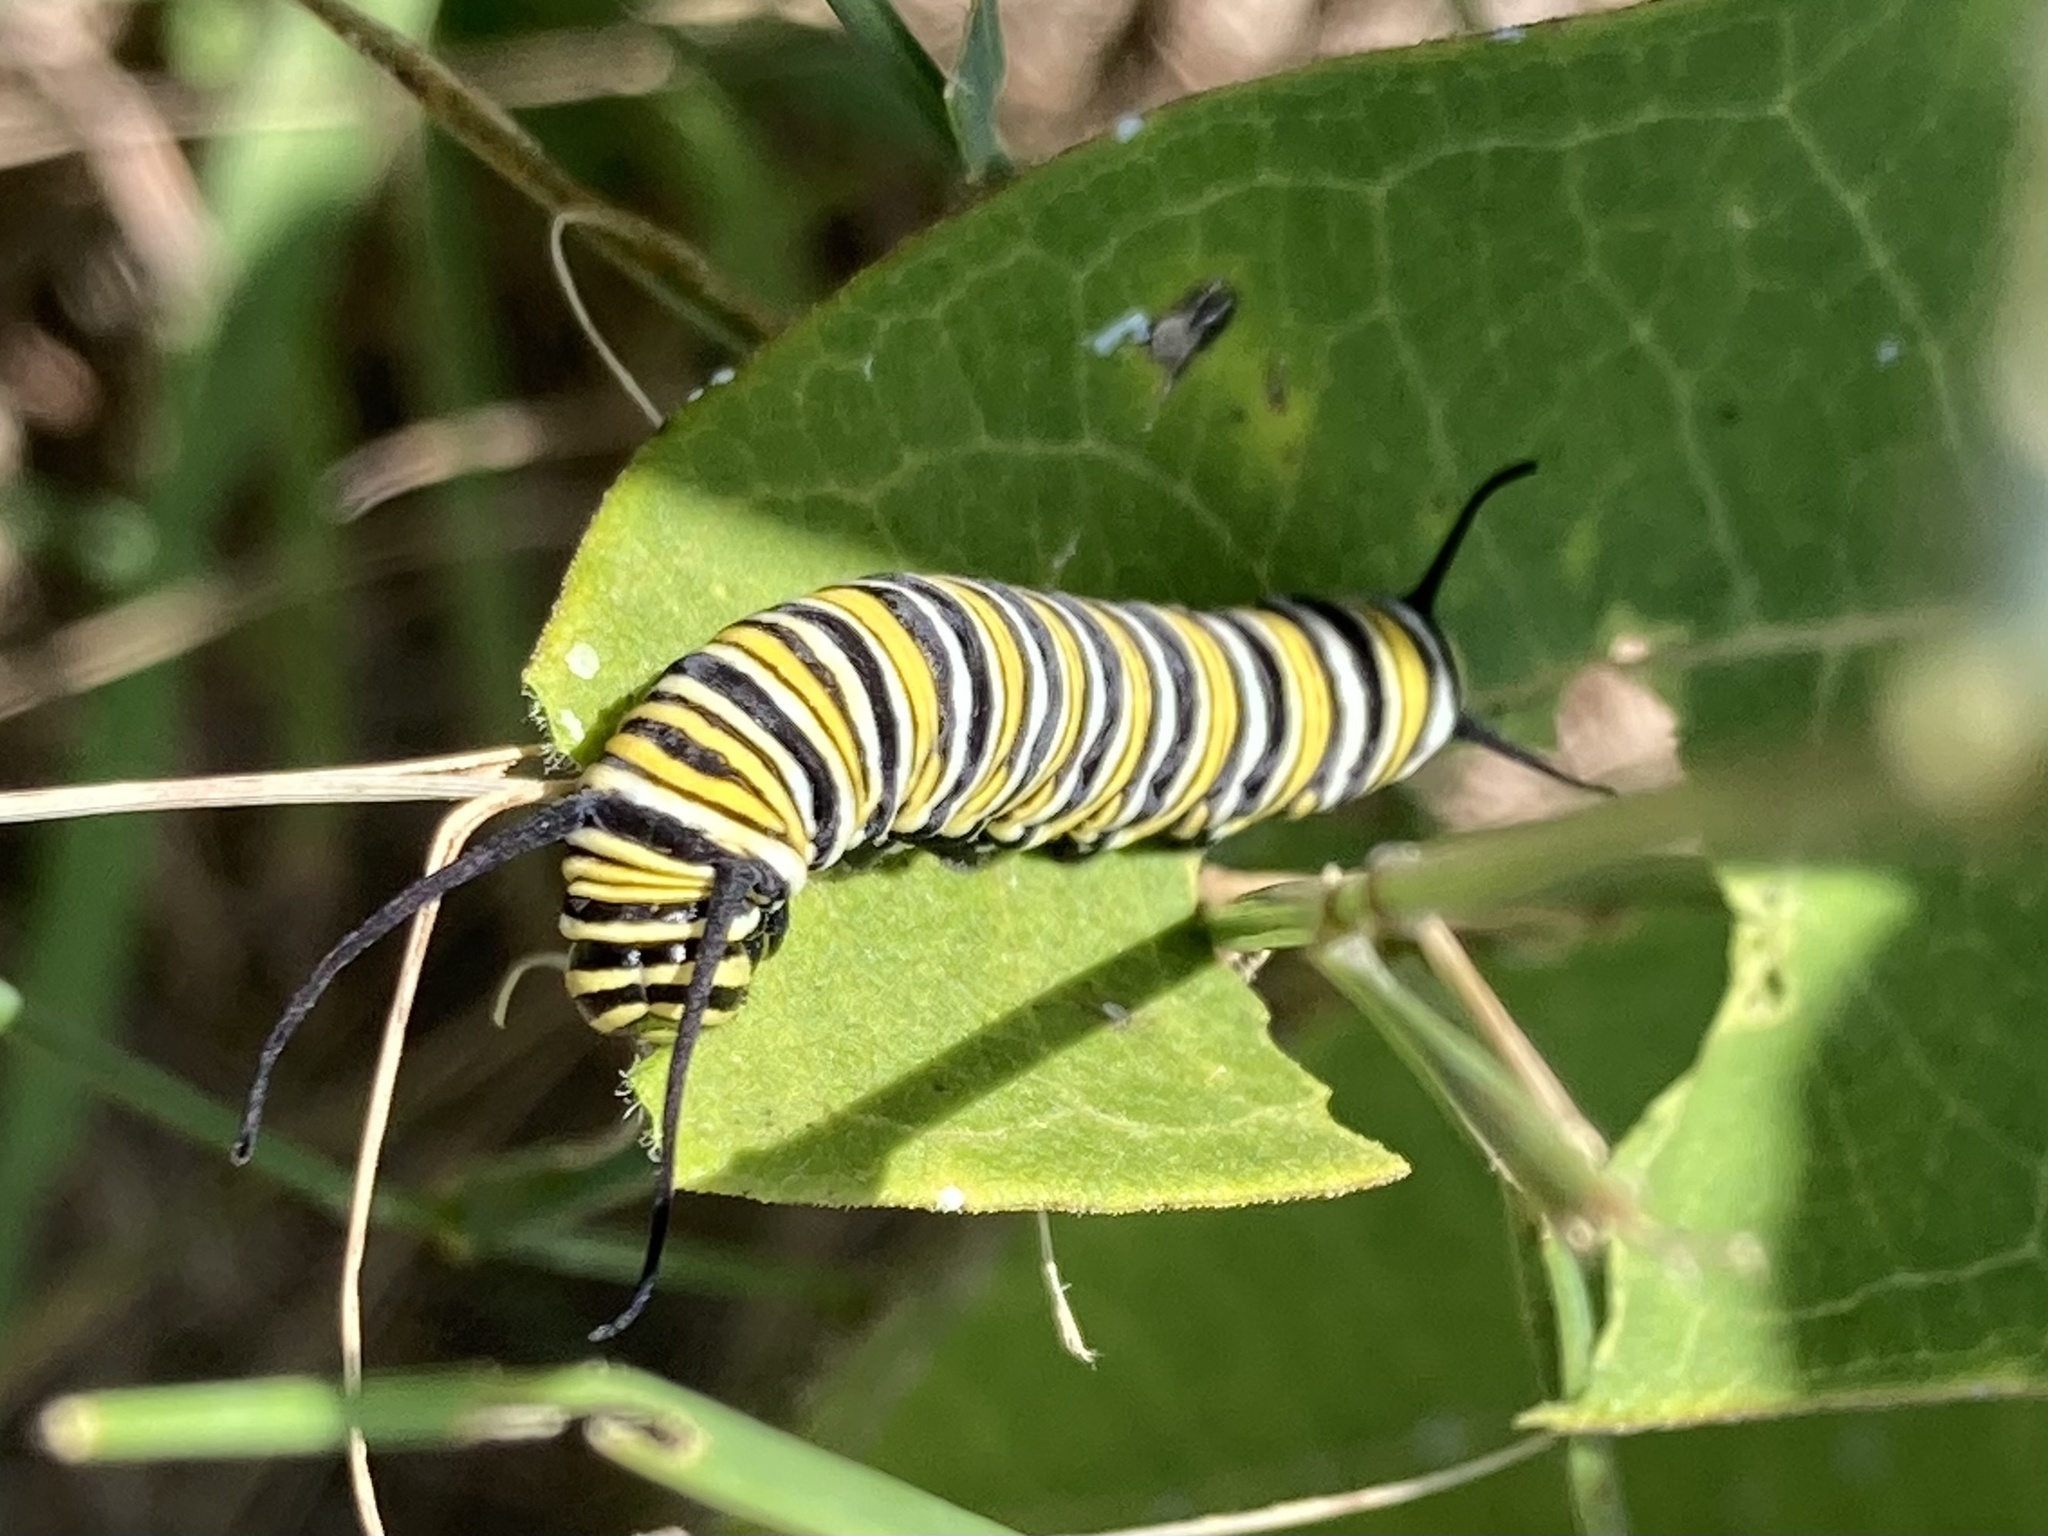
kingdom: Animalia
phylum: Arthropoda
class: Insecta
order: Lepidoptera
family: Nymphalidae
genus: Danaus
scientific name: Danaus plexippus
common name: Monarch
